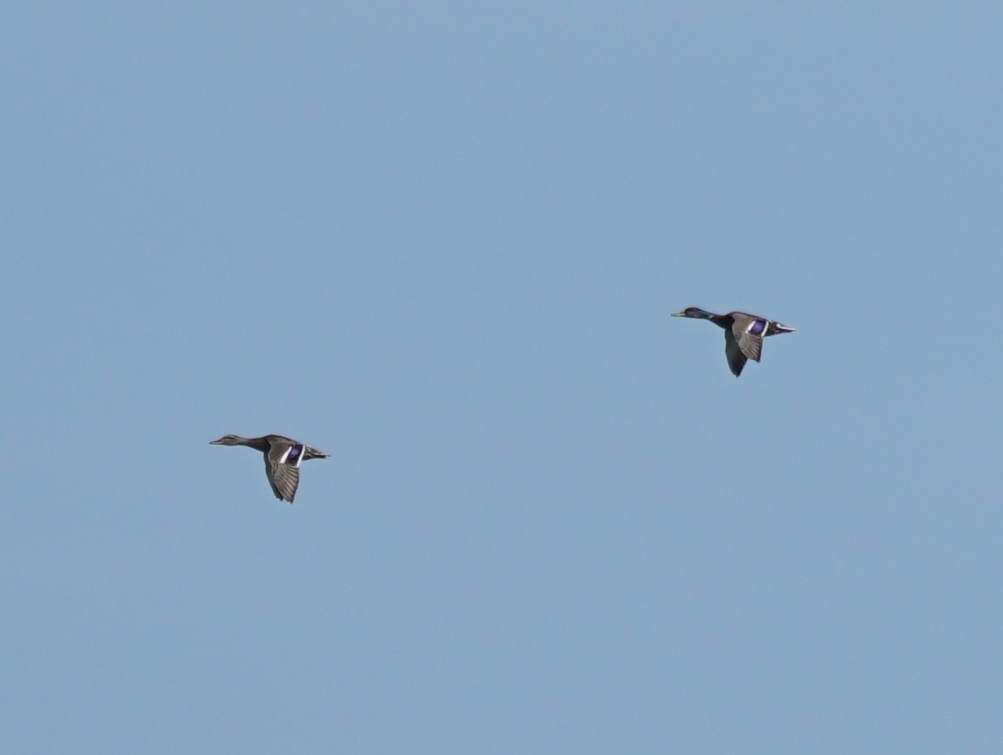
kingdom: Animalia
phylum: Chordata
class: Aves
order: Anseriformes
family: Anatidae
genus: Anas
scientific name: Anas platyrhynchos
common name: Mallard
